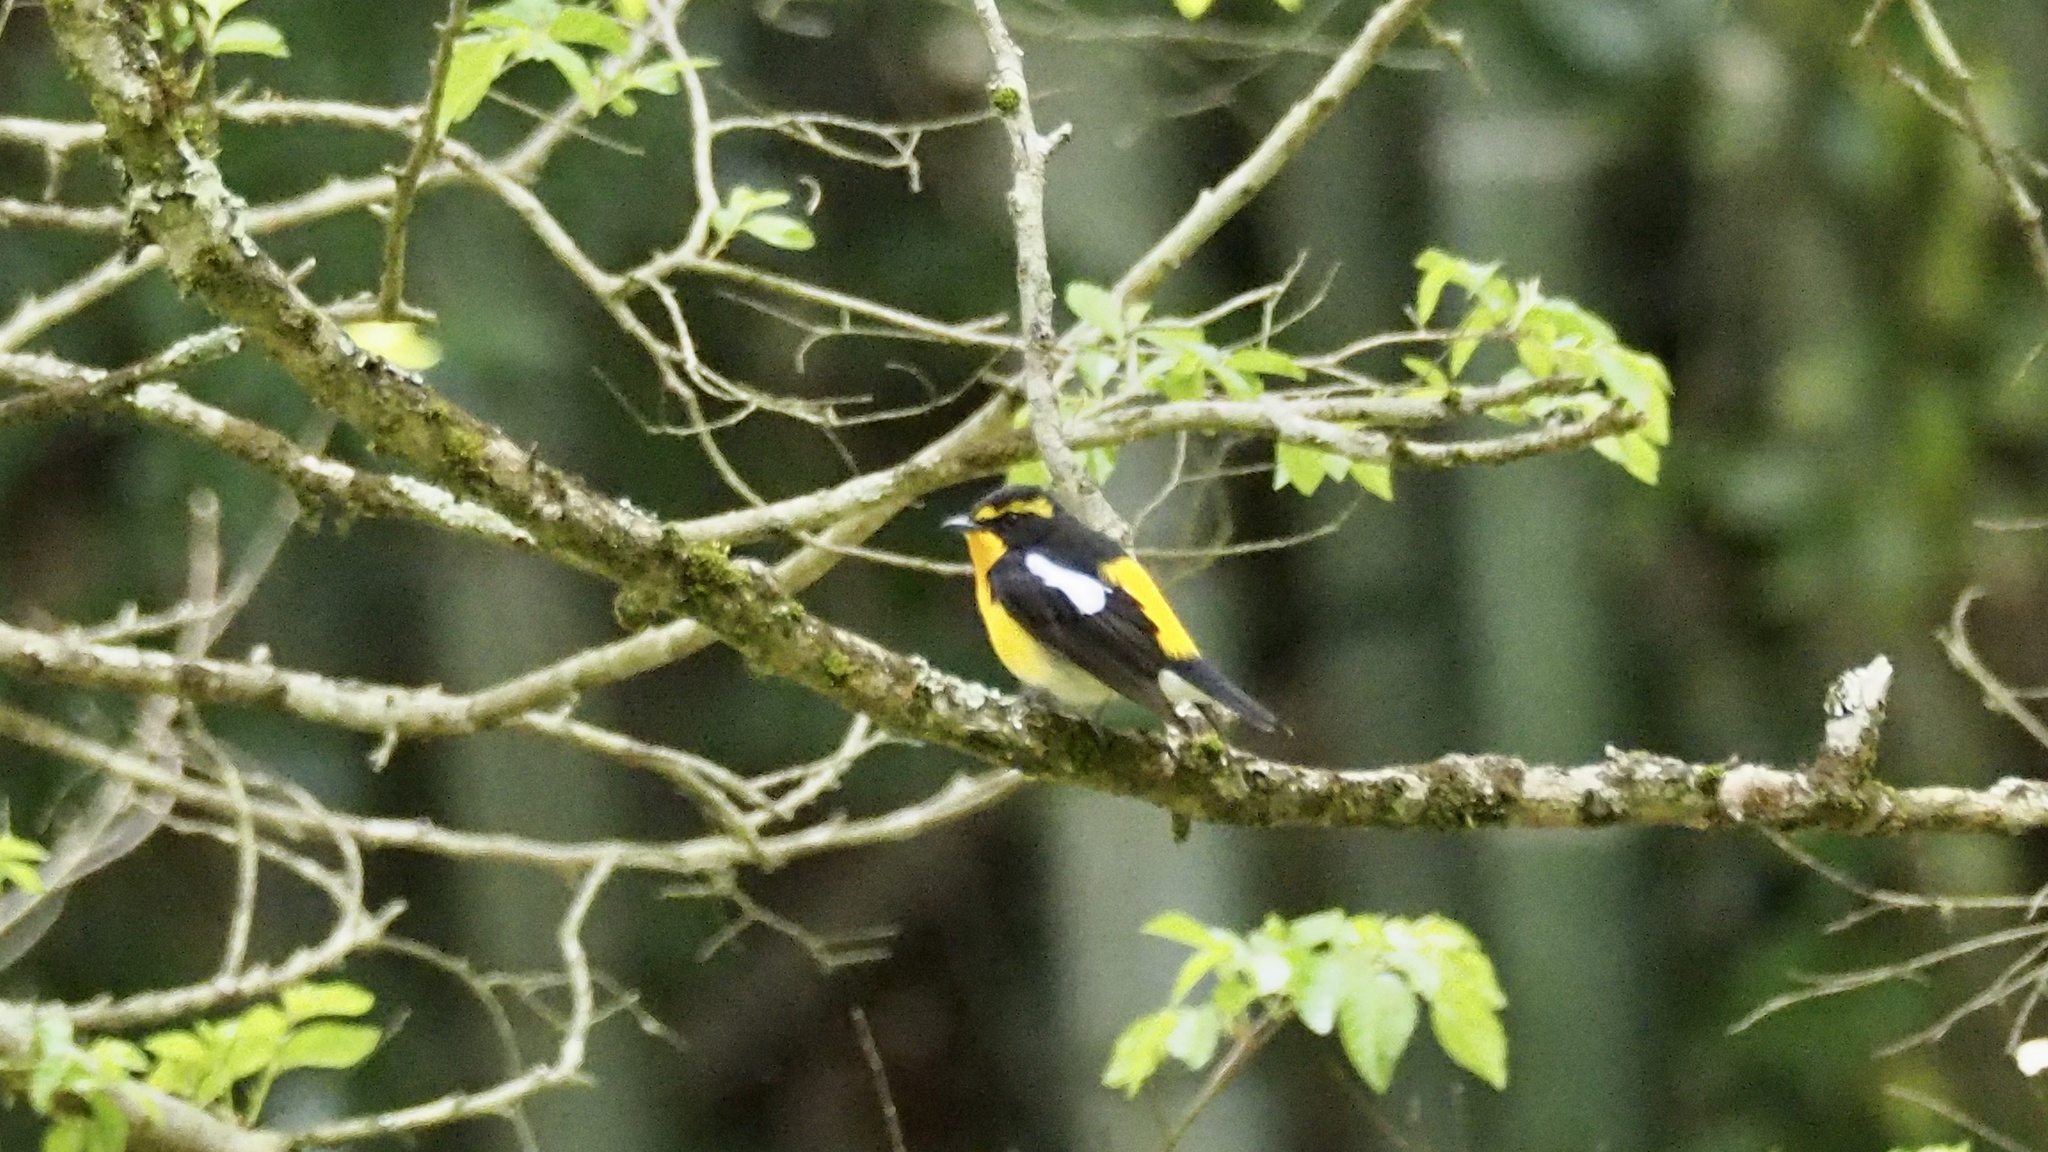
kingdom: Animalia
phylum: Chordata
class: Aves
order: Passeriformes
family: Muscicapidae
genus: Ficedula
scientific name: Ficedula narcissina
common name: Narcissus flycatcher
